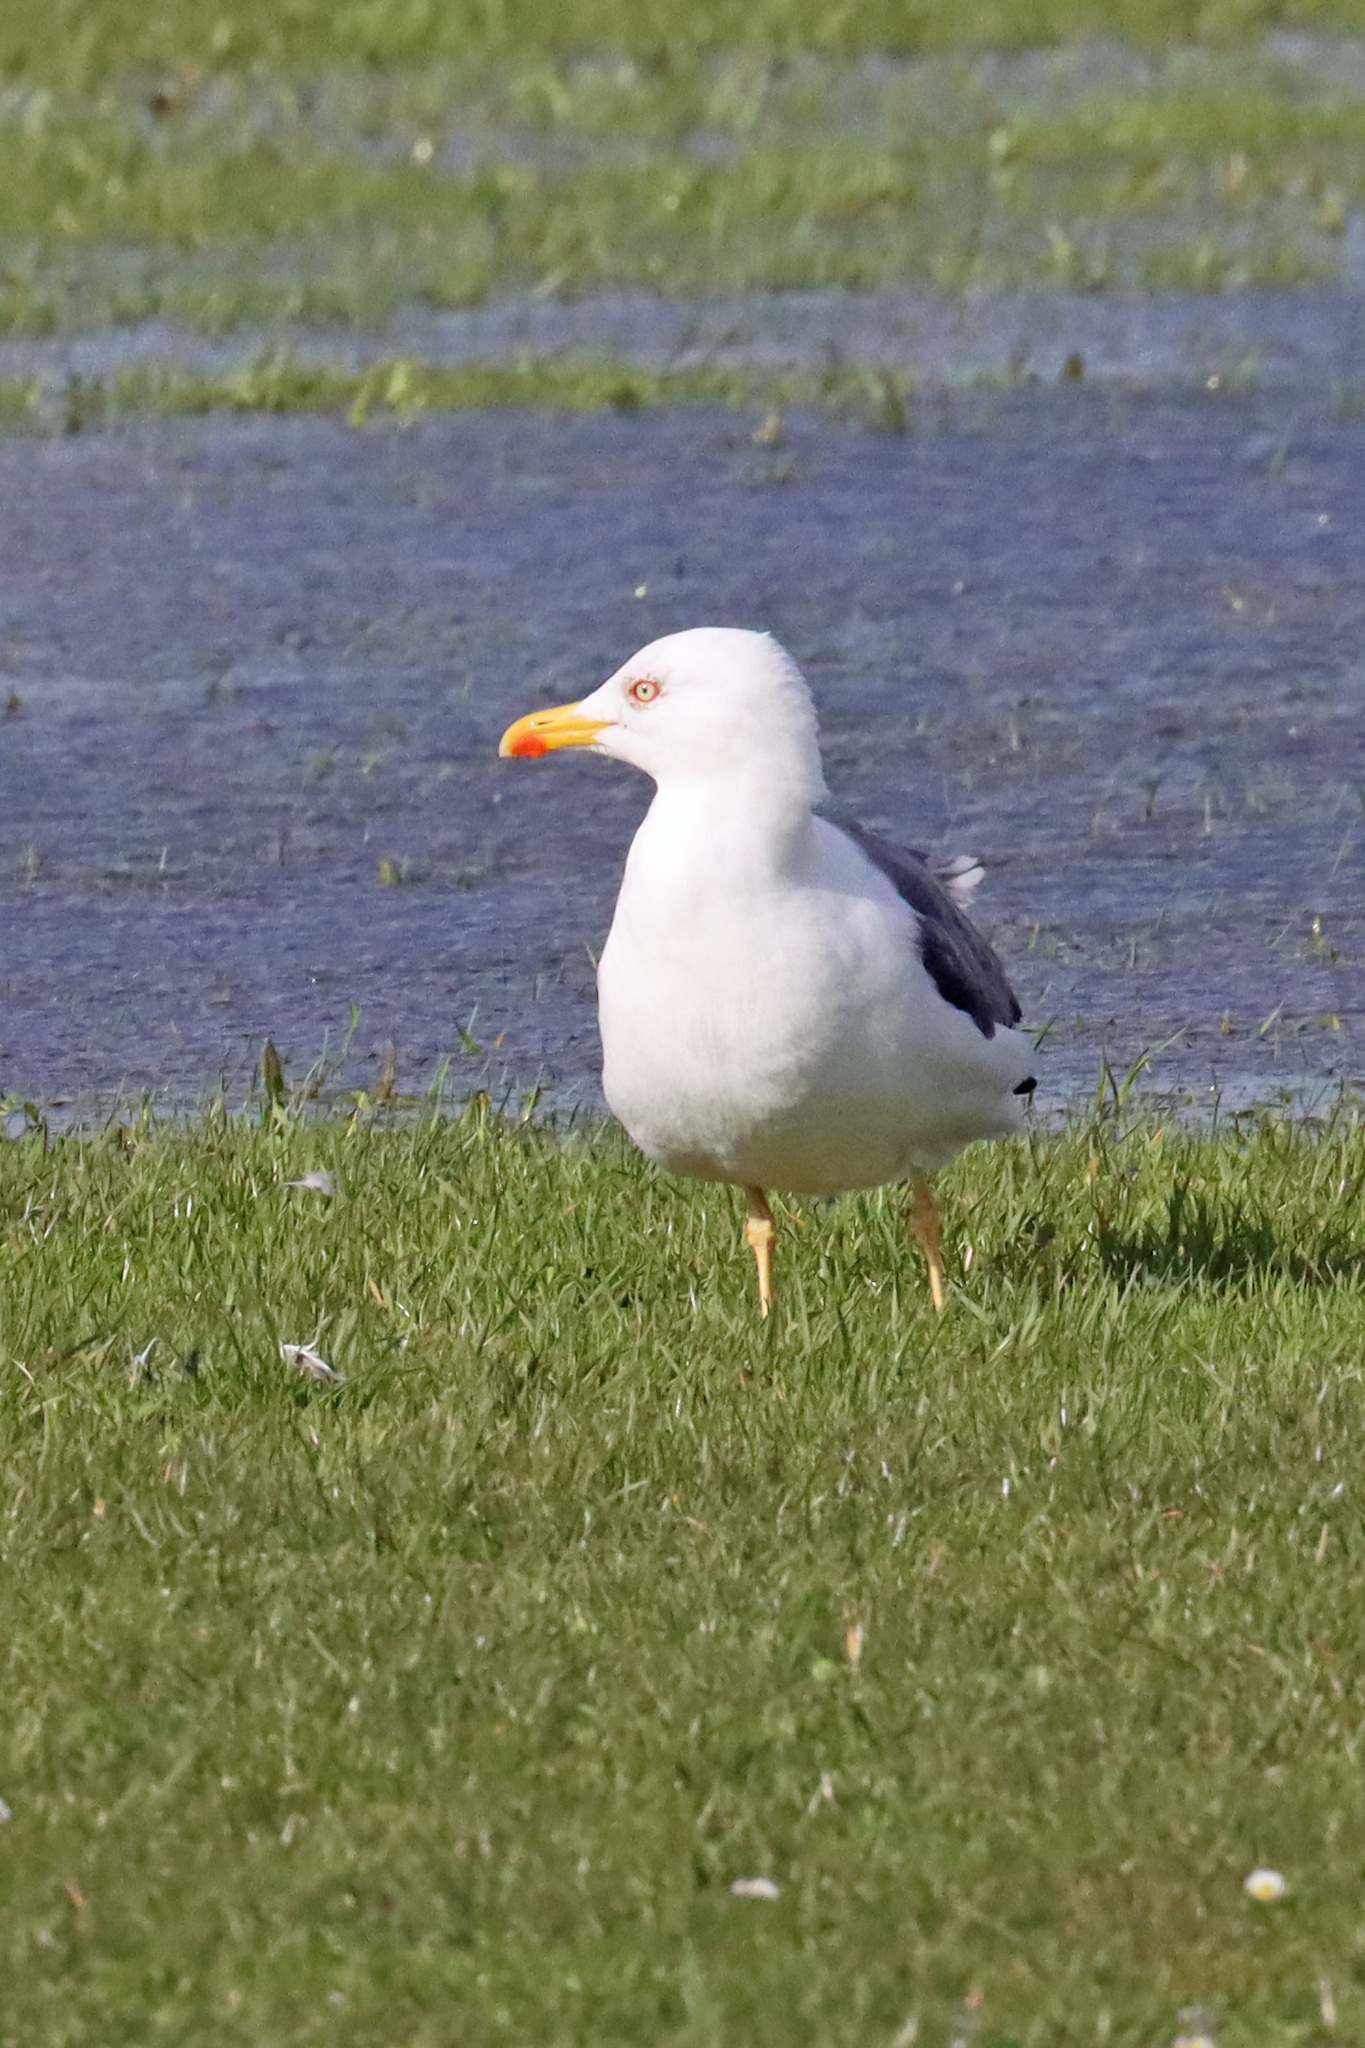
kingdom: Animalia
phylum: Chordata
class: Aves
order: Charadriiformes
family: Laridae
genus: Larus
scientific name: Larus fuscus
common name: Lesser black-backed gull
